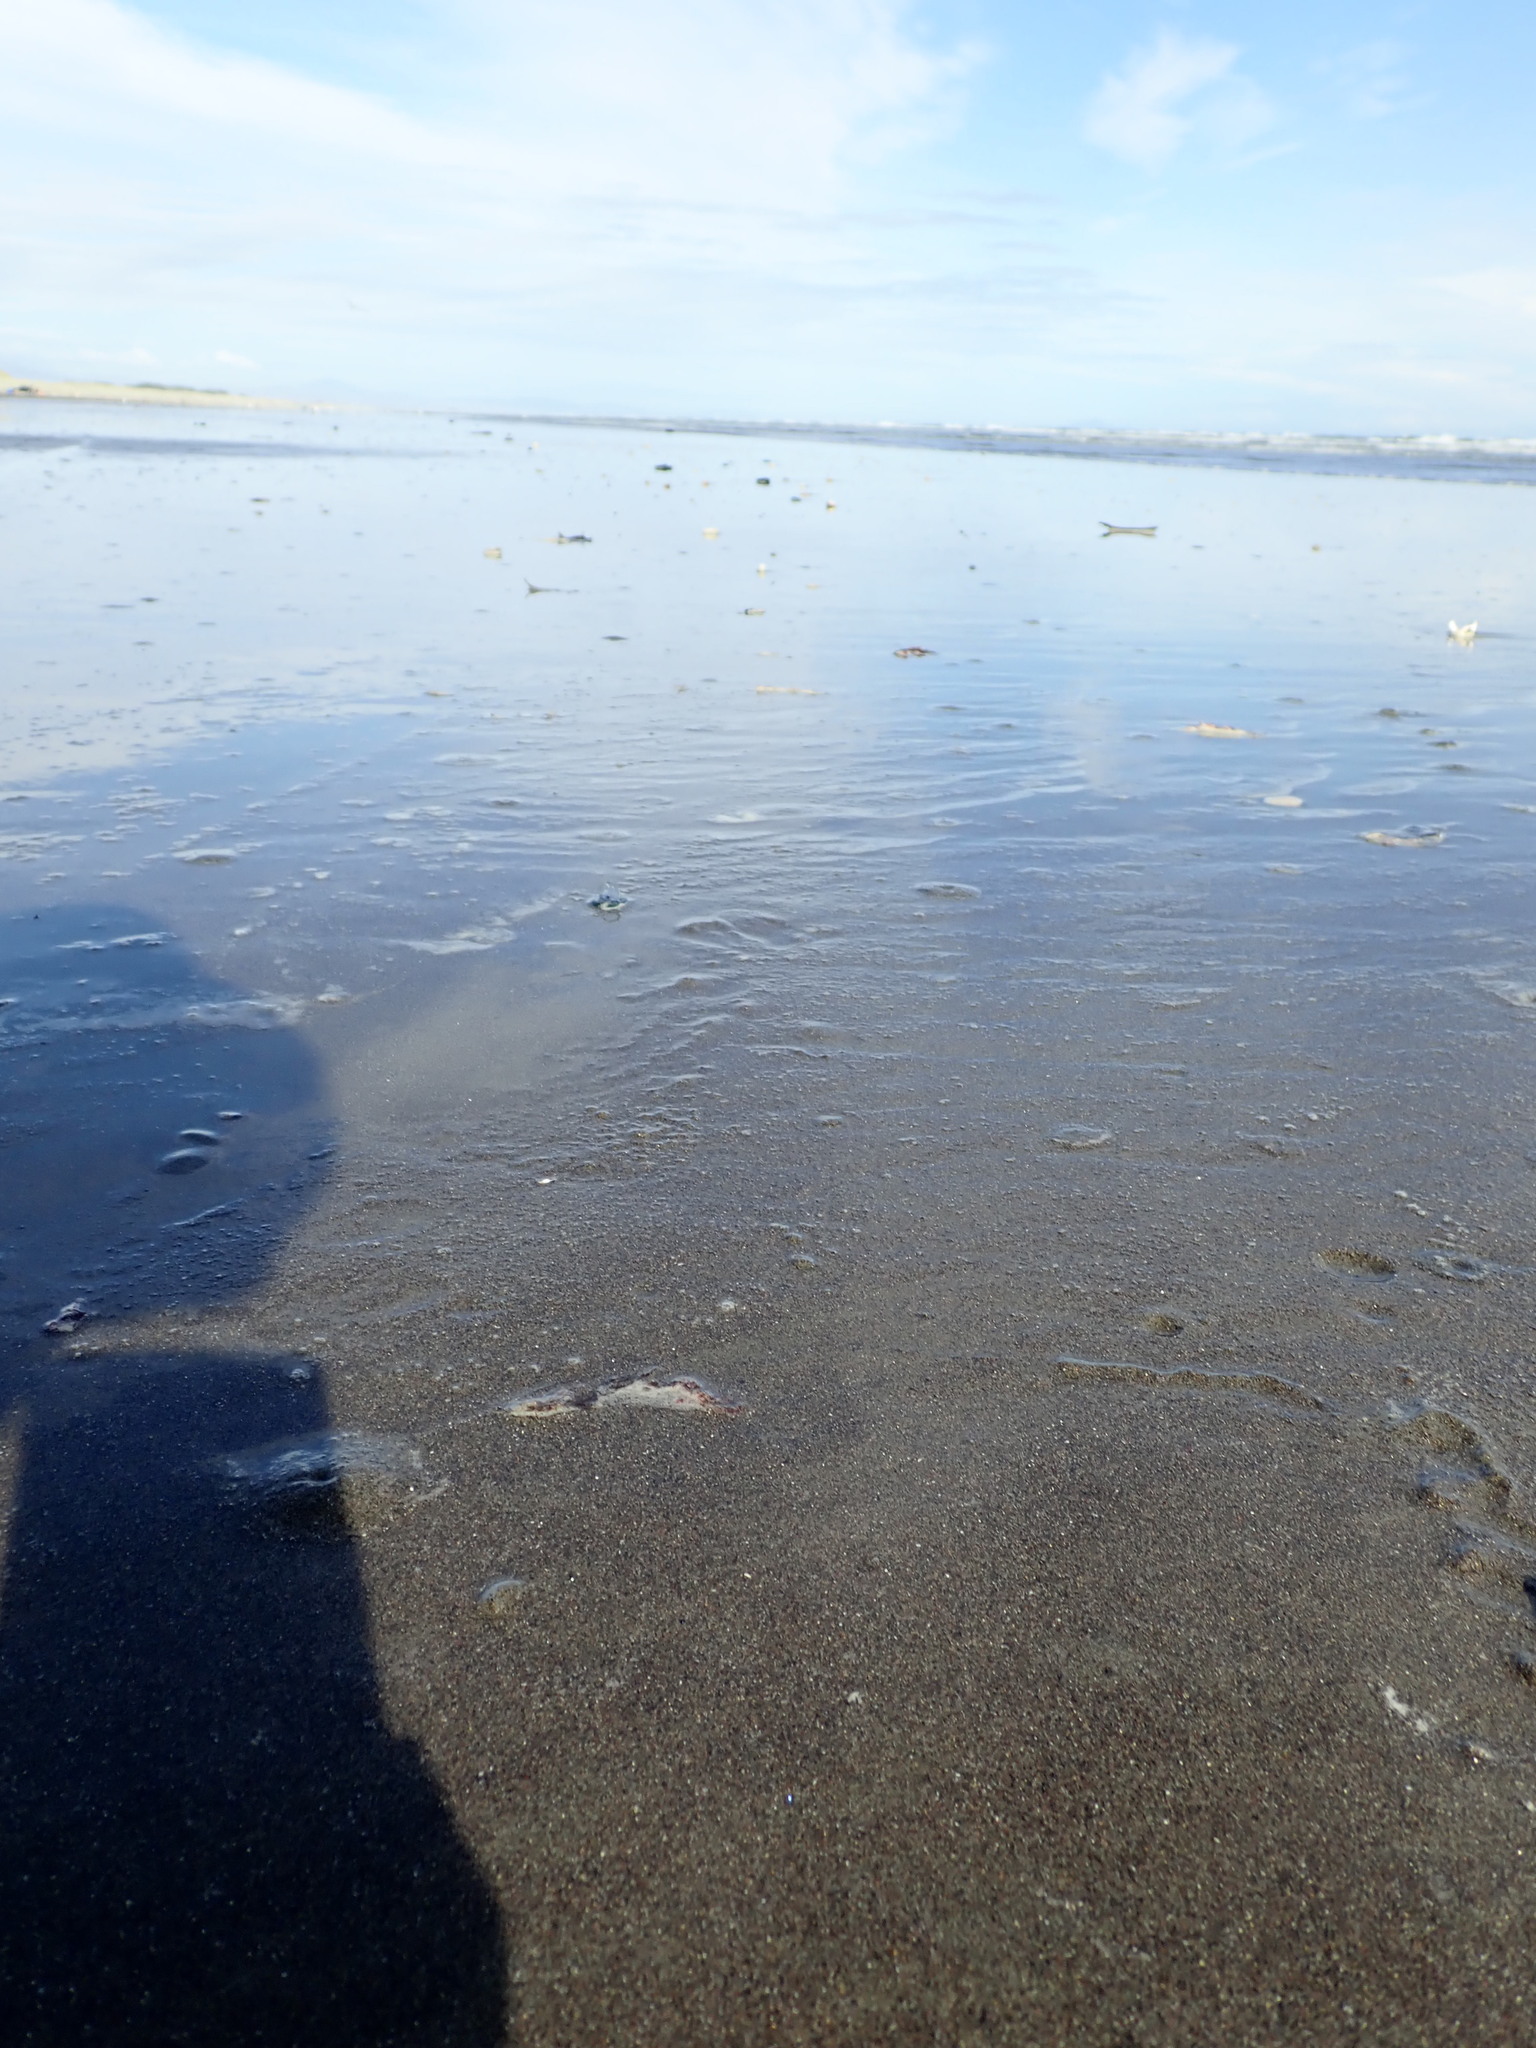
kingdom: Animalia
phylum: Cnidaria
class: Hydrozoa
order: Anthoathecata
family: Porpitidae
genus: Velella
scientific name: Velella velella
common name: By-the-wind-sailor
